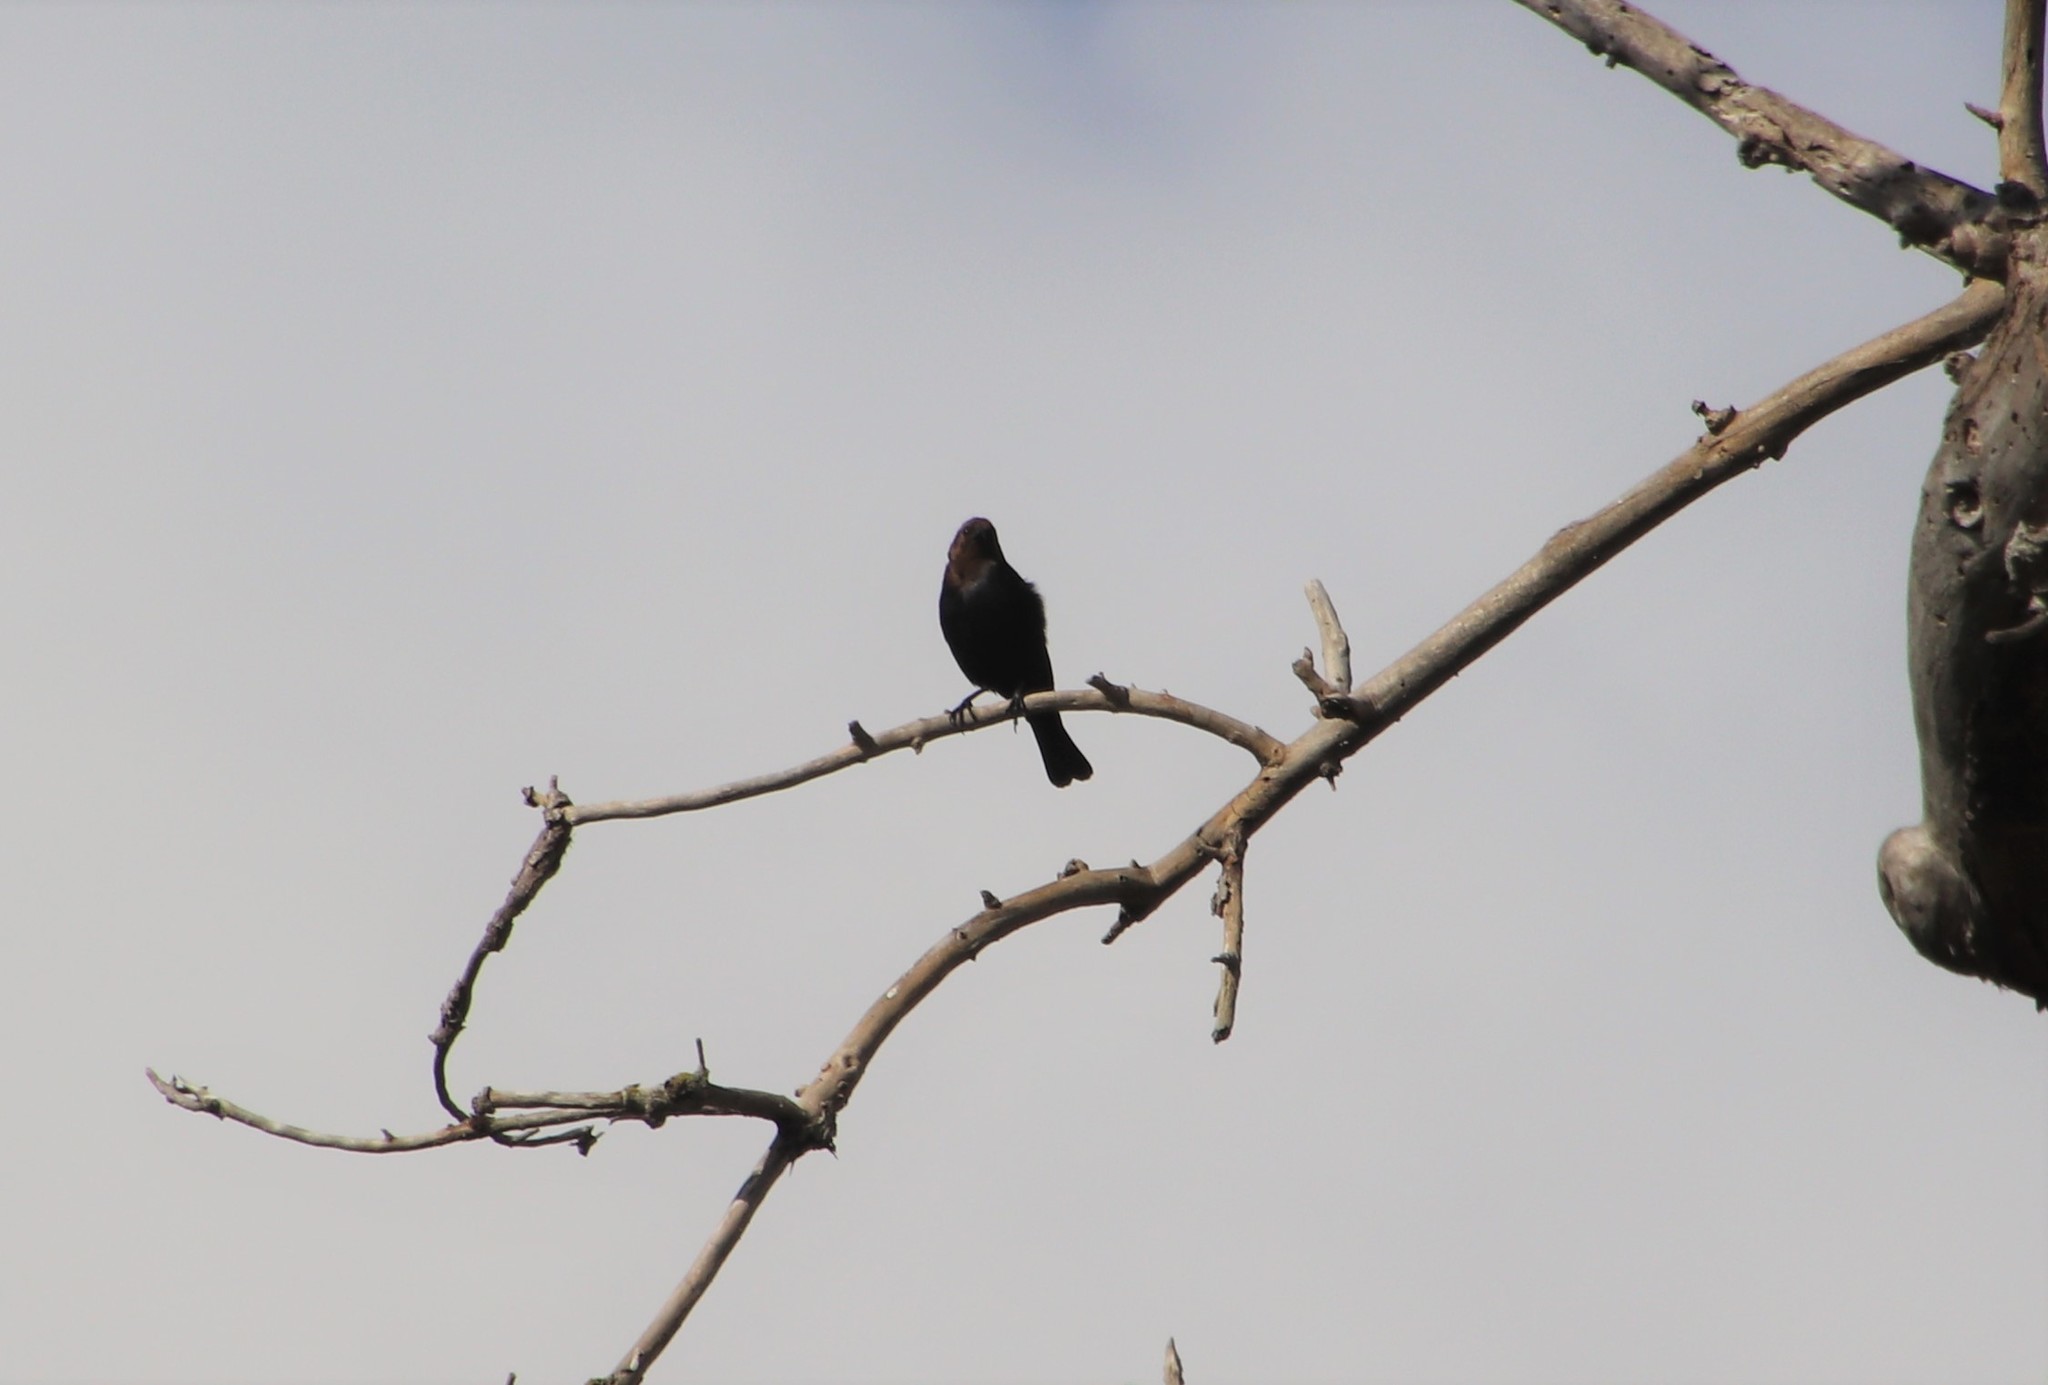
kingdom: Animalia
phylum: Chordata
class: Aves
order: Passeriformes
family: Icteridae
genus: Molothrus
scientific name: Molothrus ater
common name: Brown-headed cowbird
